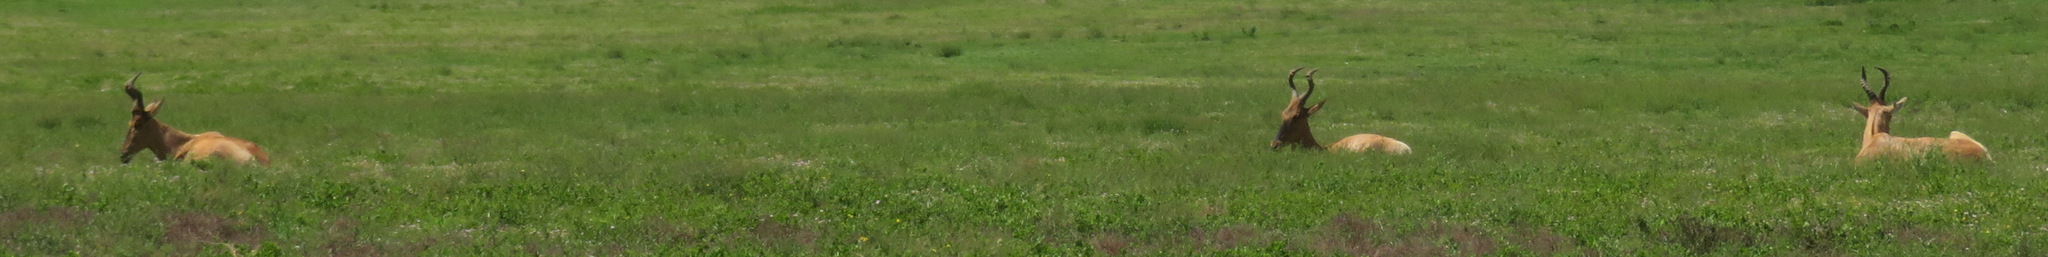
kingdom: Animalia
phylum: Chordata
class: Mammalia
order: Artiodactyla
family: Bovidae
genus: Alcelaphus
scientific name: Alcelaphus caama
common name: Red hartebeest
